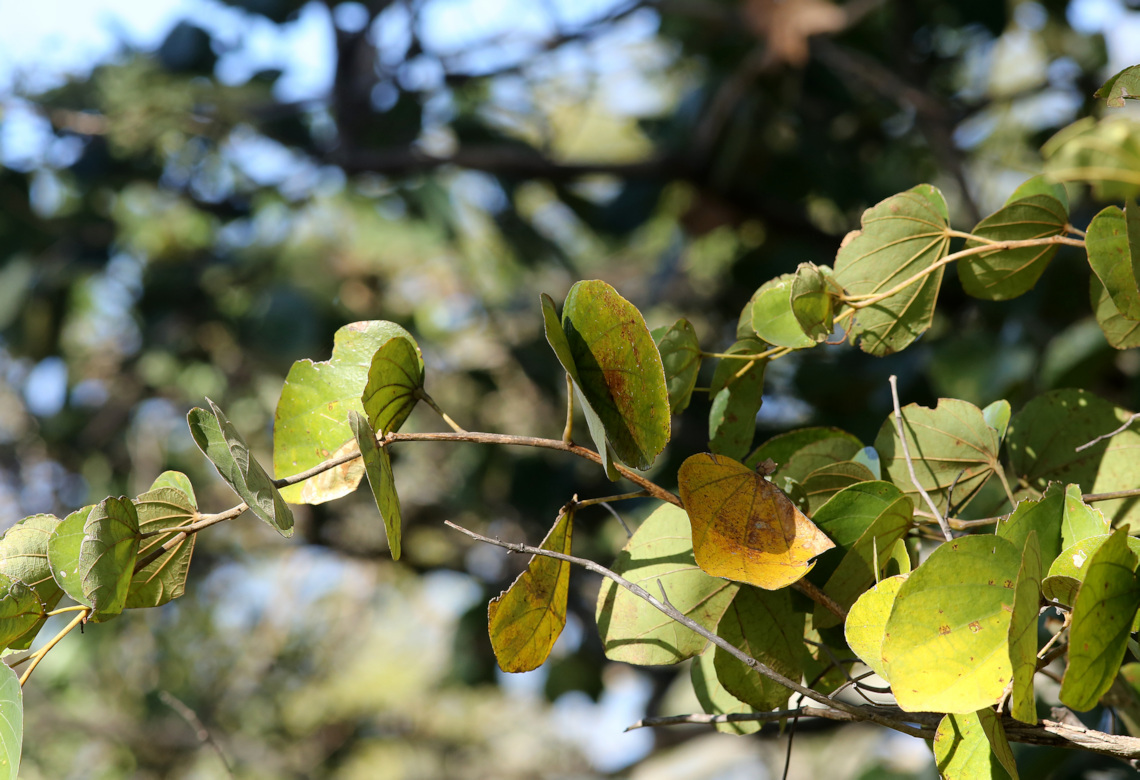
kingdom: Plantae
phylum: Tracheophyta
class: Magnoliopsida
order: Fabales
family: Fabaceae
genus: Piliostigma
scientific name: Piliostigma thonningii
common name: Kao
